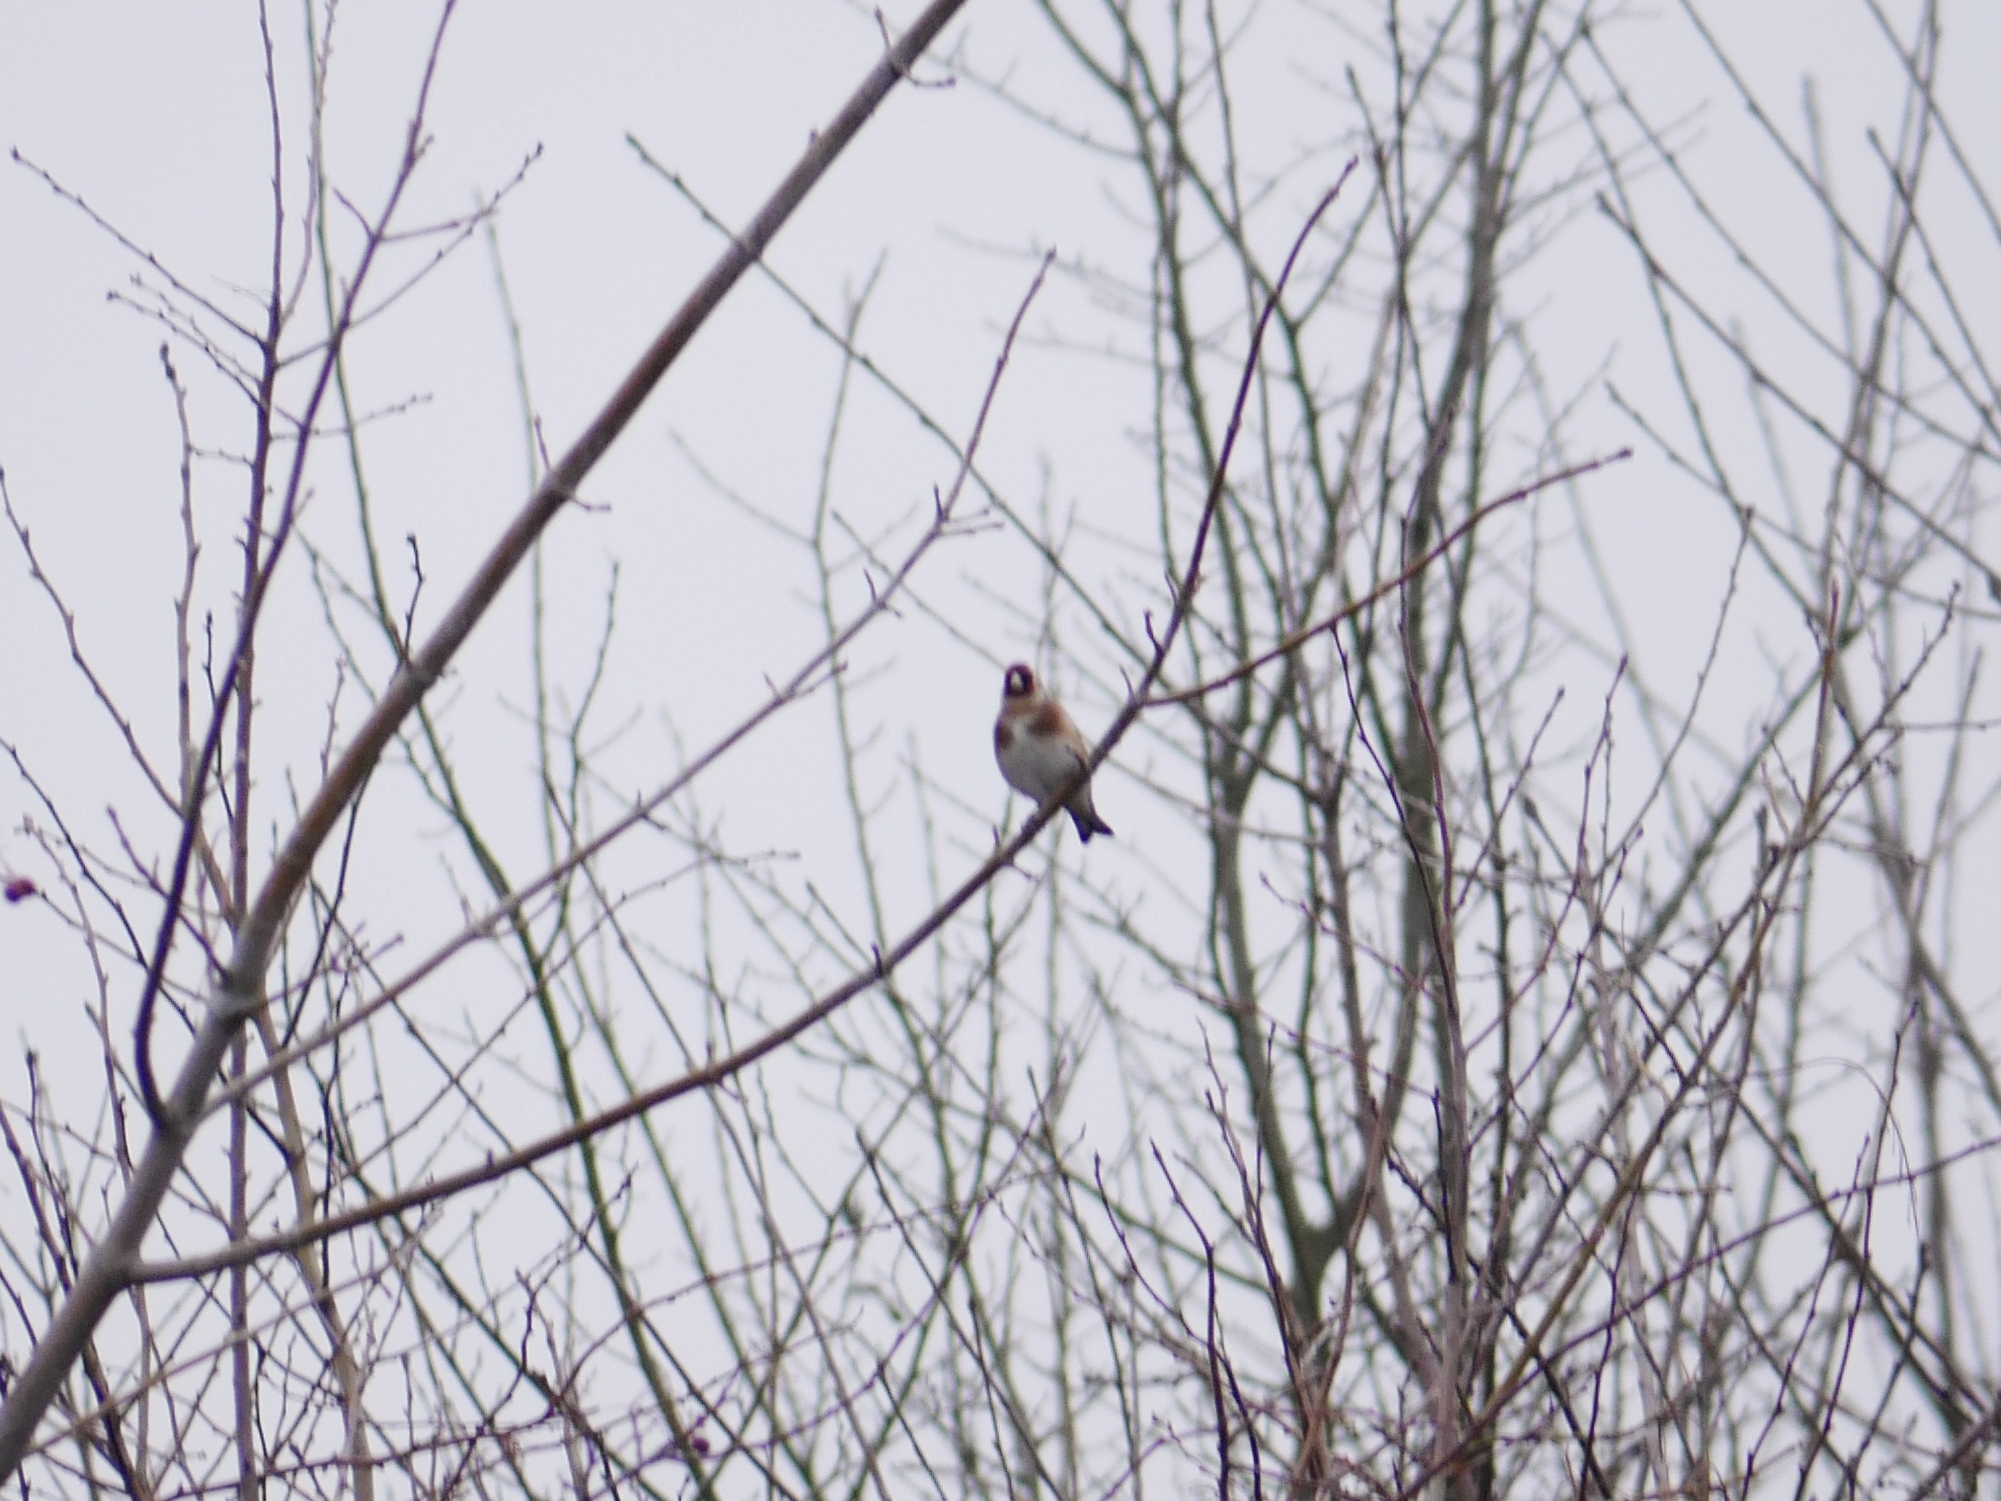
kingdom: Animalia
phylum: Chordata
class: Aves
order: Passeriformes
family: Fringillidae
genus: Carduelis
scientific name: Carduelis carduelis
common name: European goldfinch
